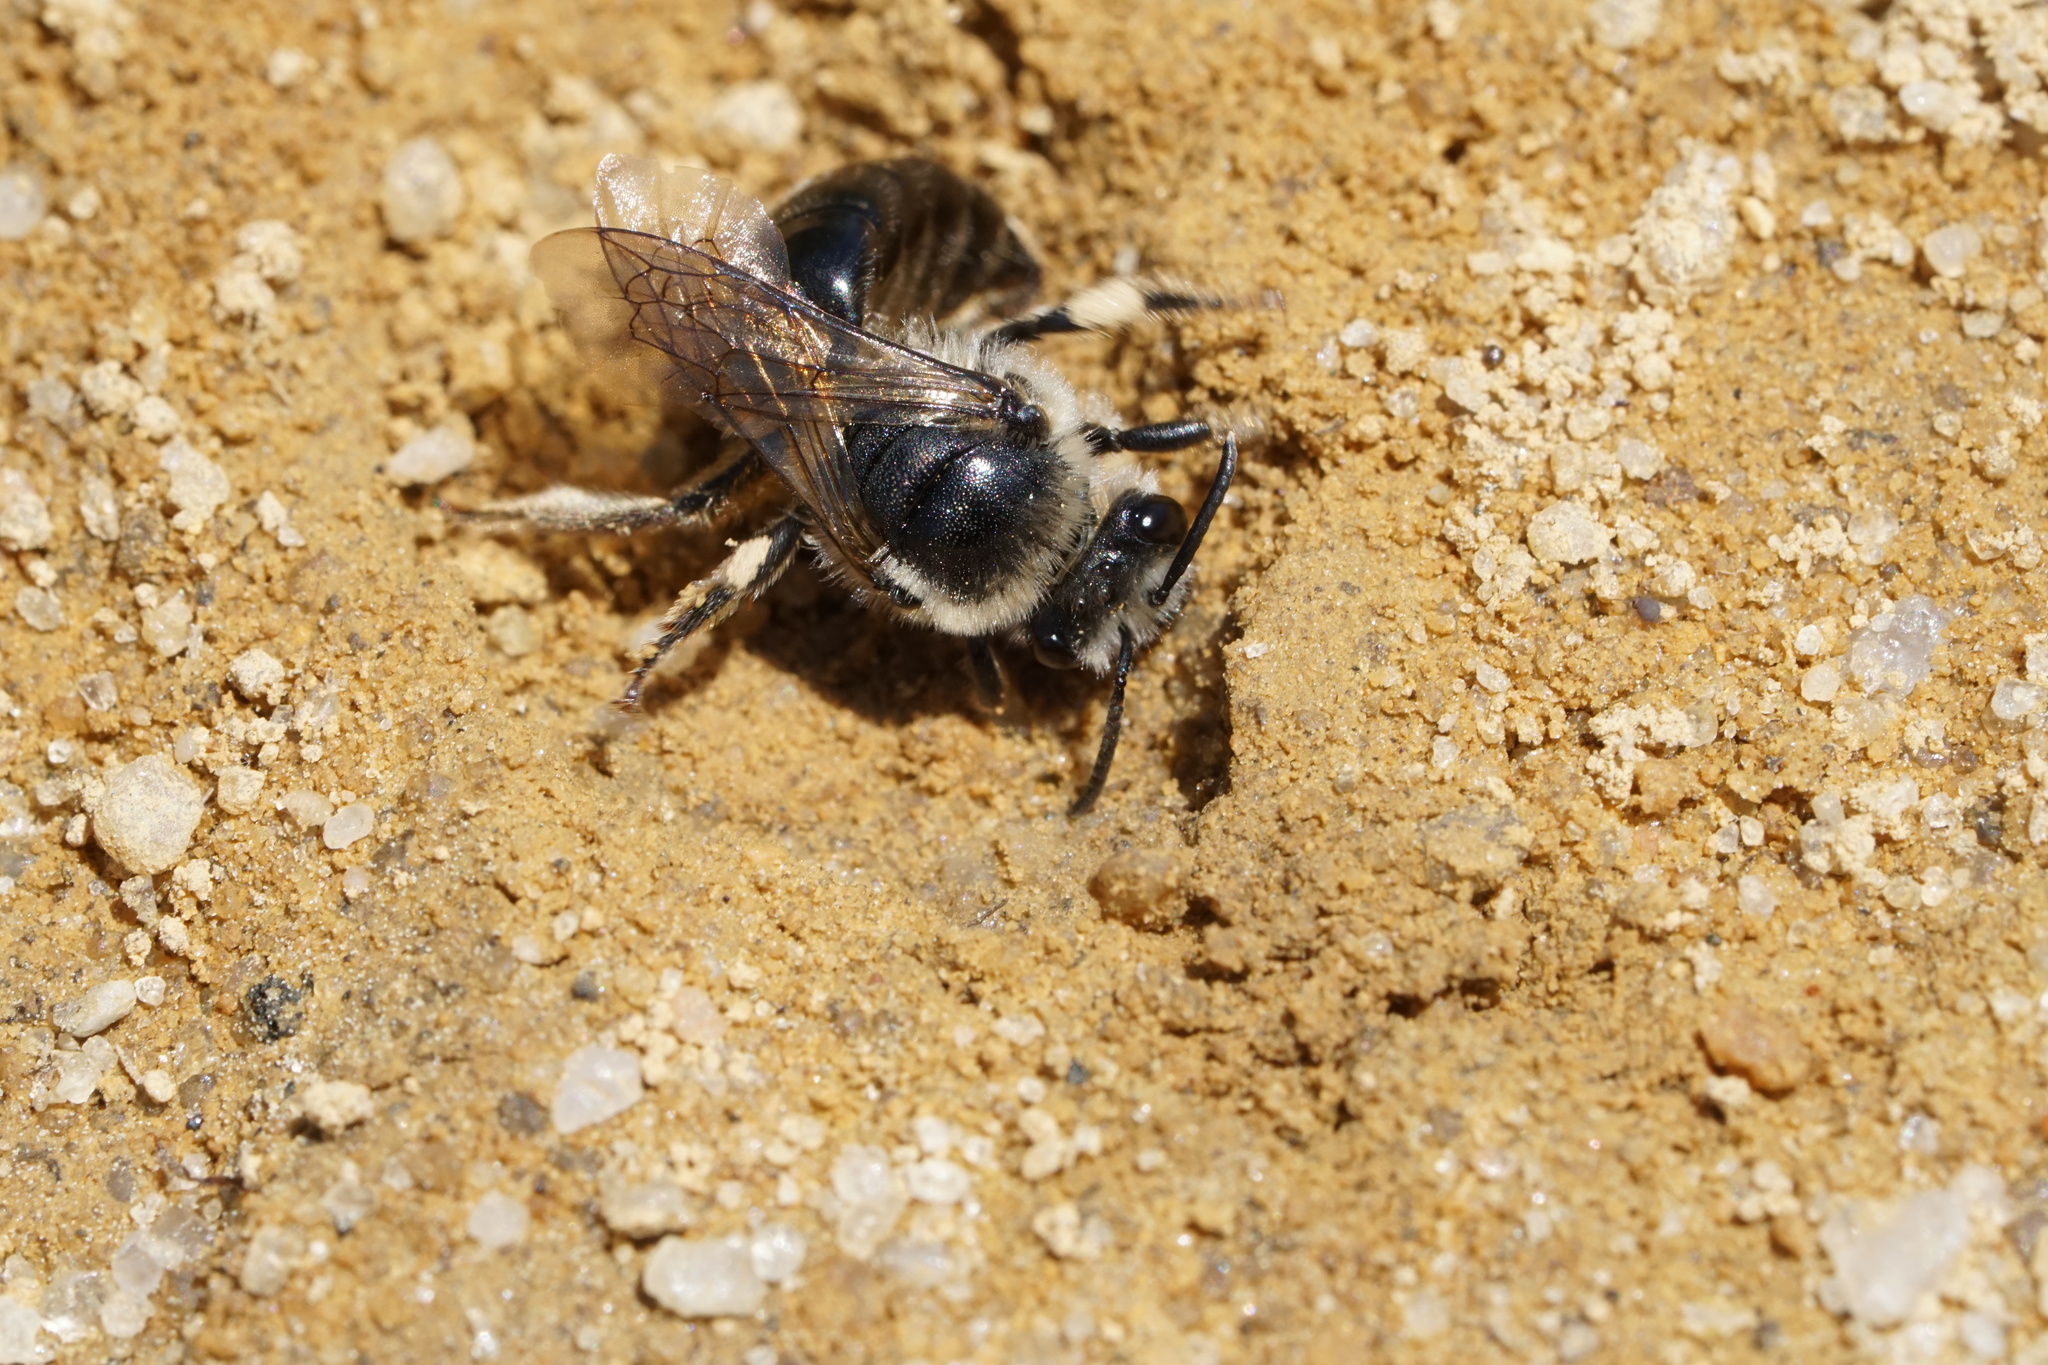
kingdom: Animalia
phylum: Arthropoda
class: Insecta
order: Hymenoptera
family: Colletidae
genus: Colletes
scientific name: Colletes validus
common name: Blueberry cellophane bee
